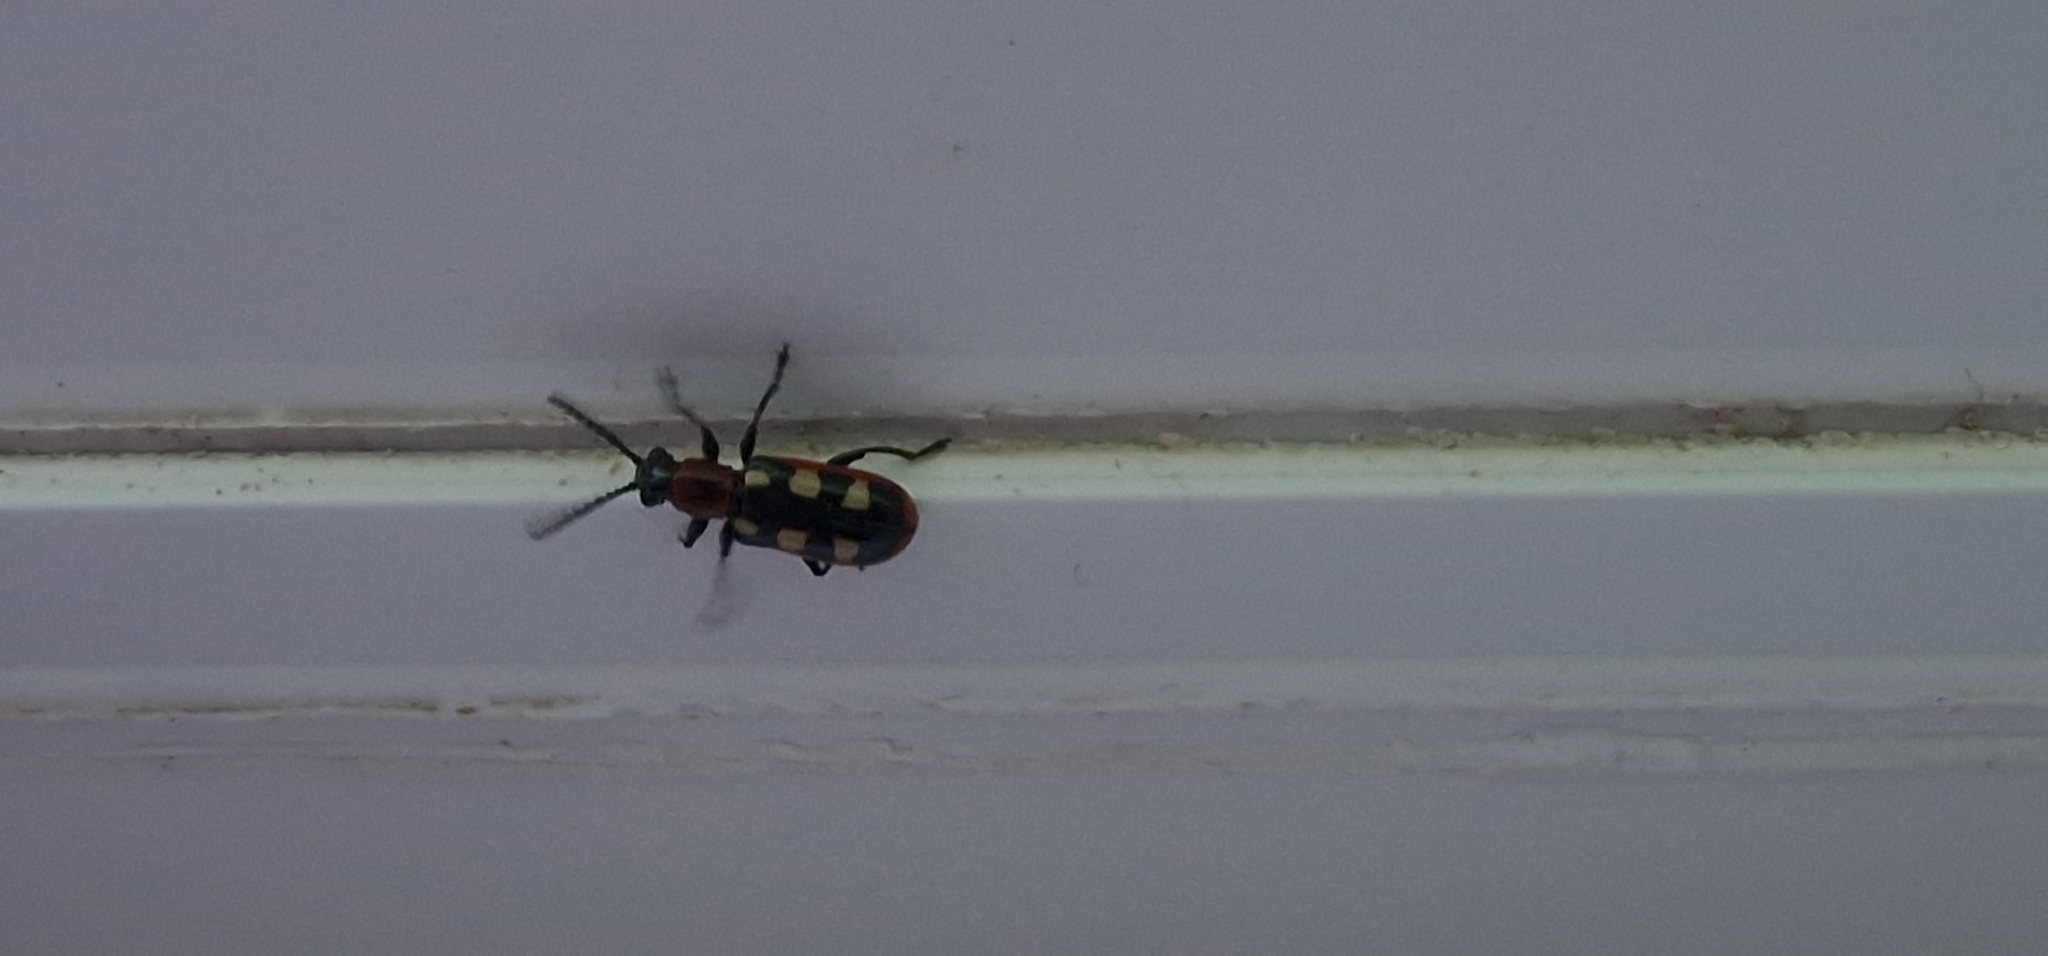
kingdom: Animalia
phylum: Arthropoda
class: Insecta
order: Coleoptera
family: Chrysomelidae
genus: Crioceris
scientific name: Crioceris asparagi
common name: Asparagus beetle
